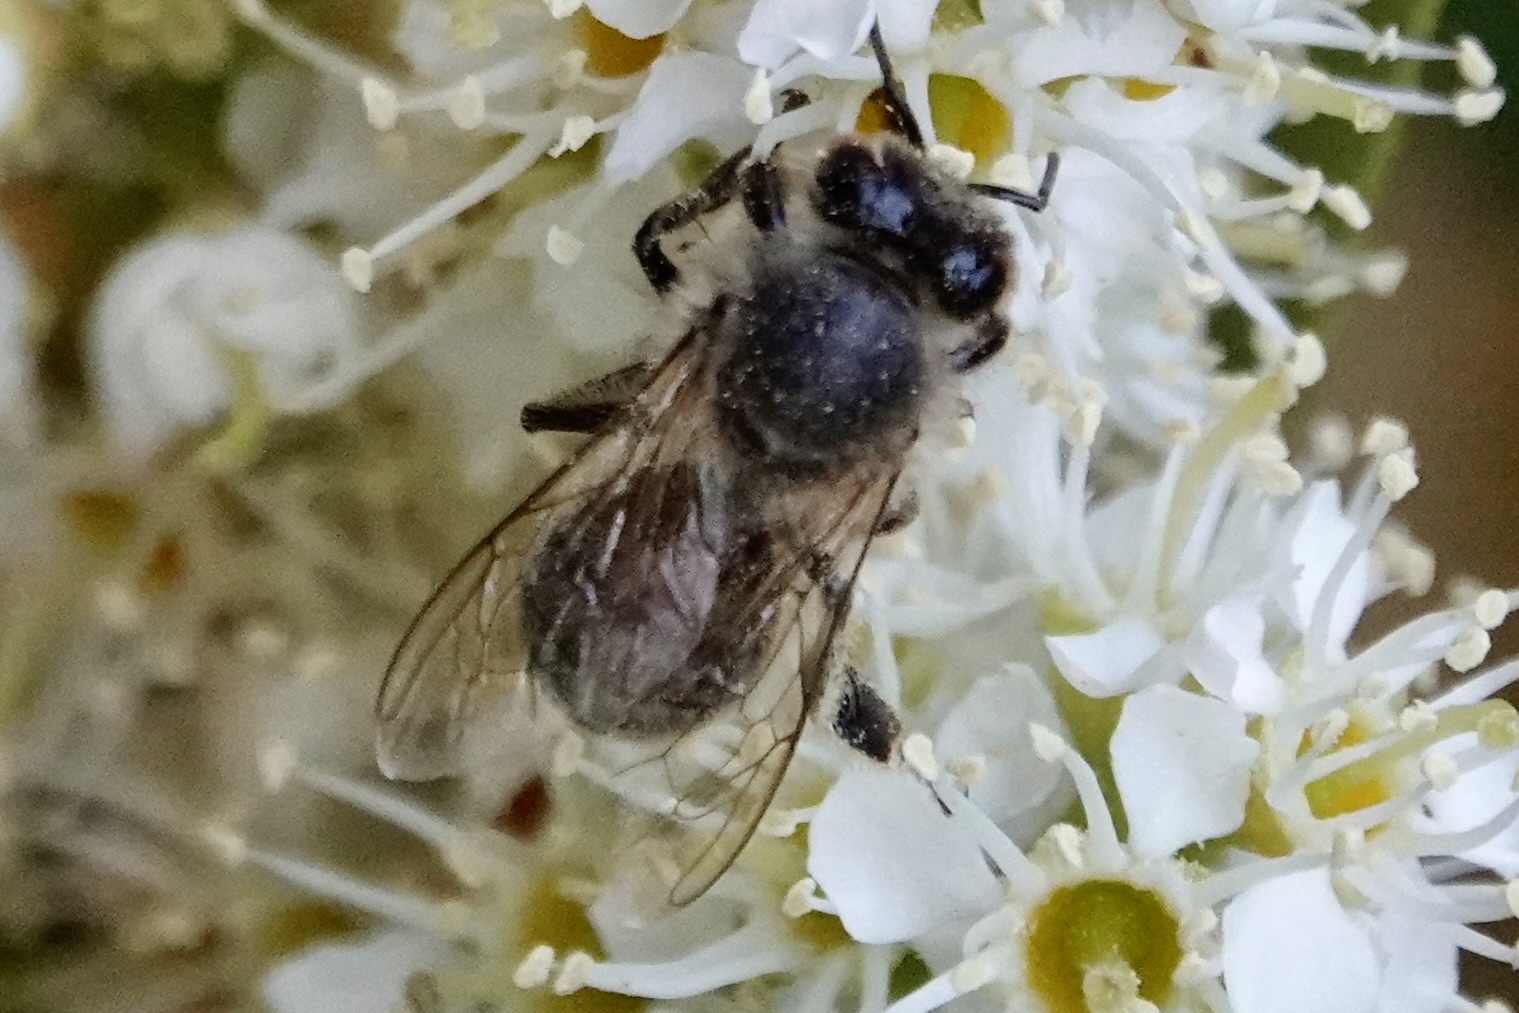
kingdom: Animalia
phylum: Arthropoda
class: Insecta
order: Hymenoptera
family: Apidae
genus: Apis
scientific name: Apis mellifera
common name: Honey bee
